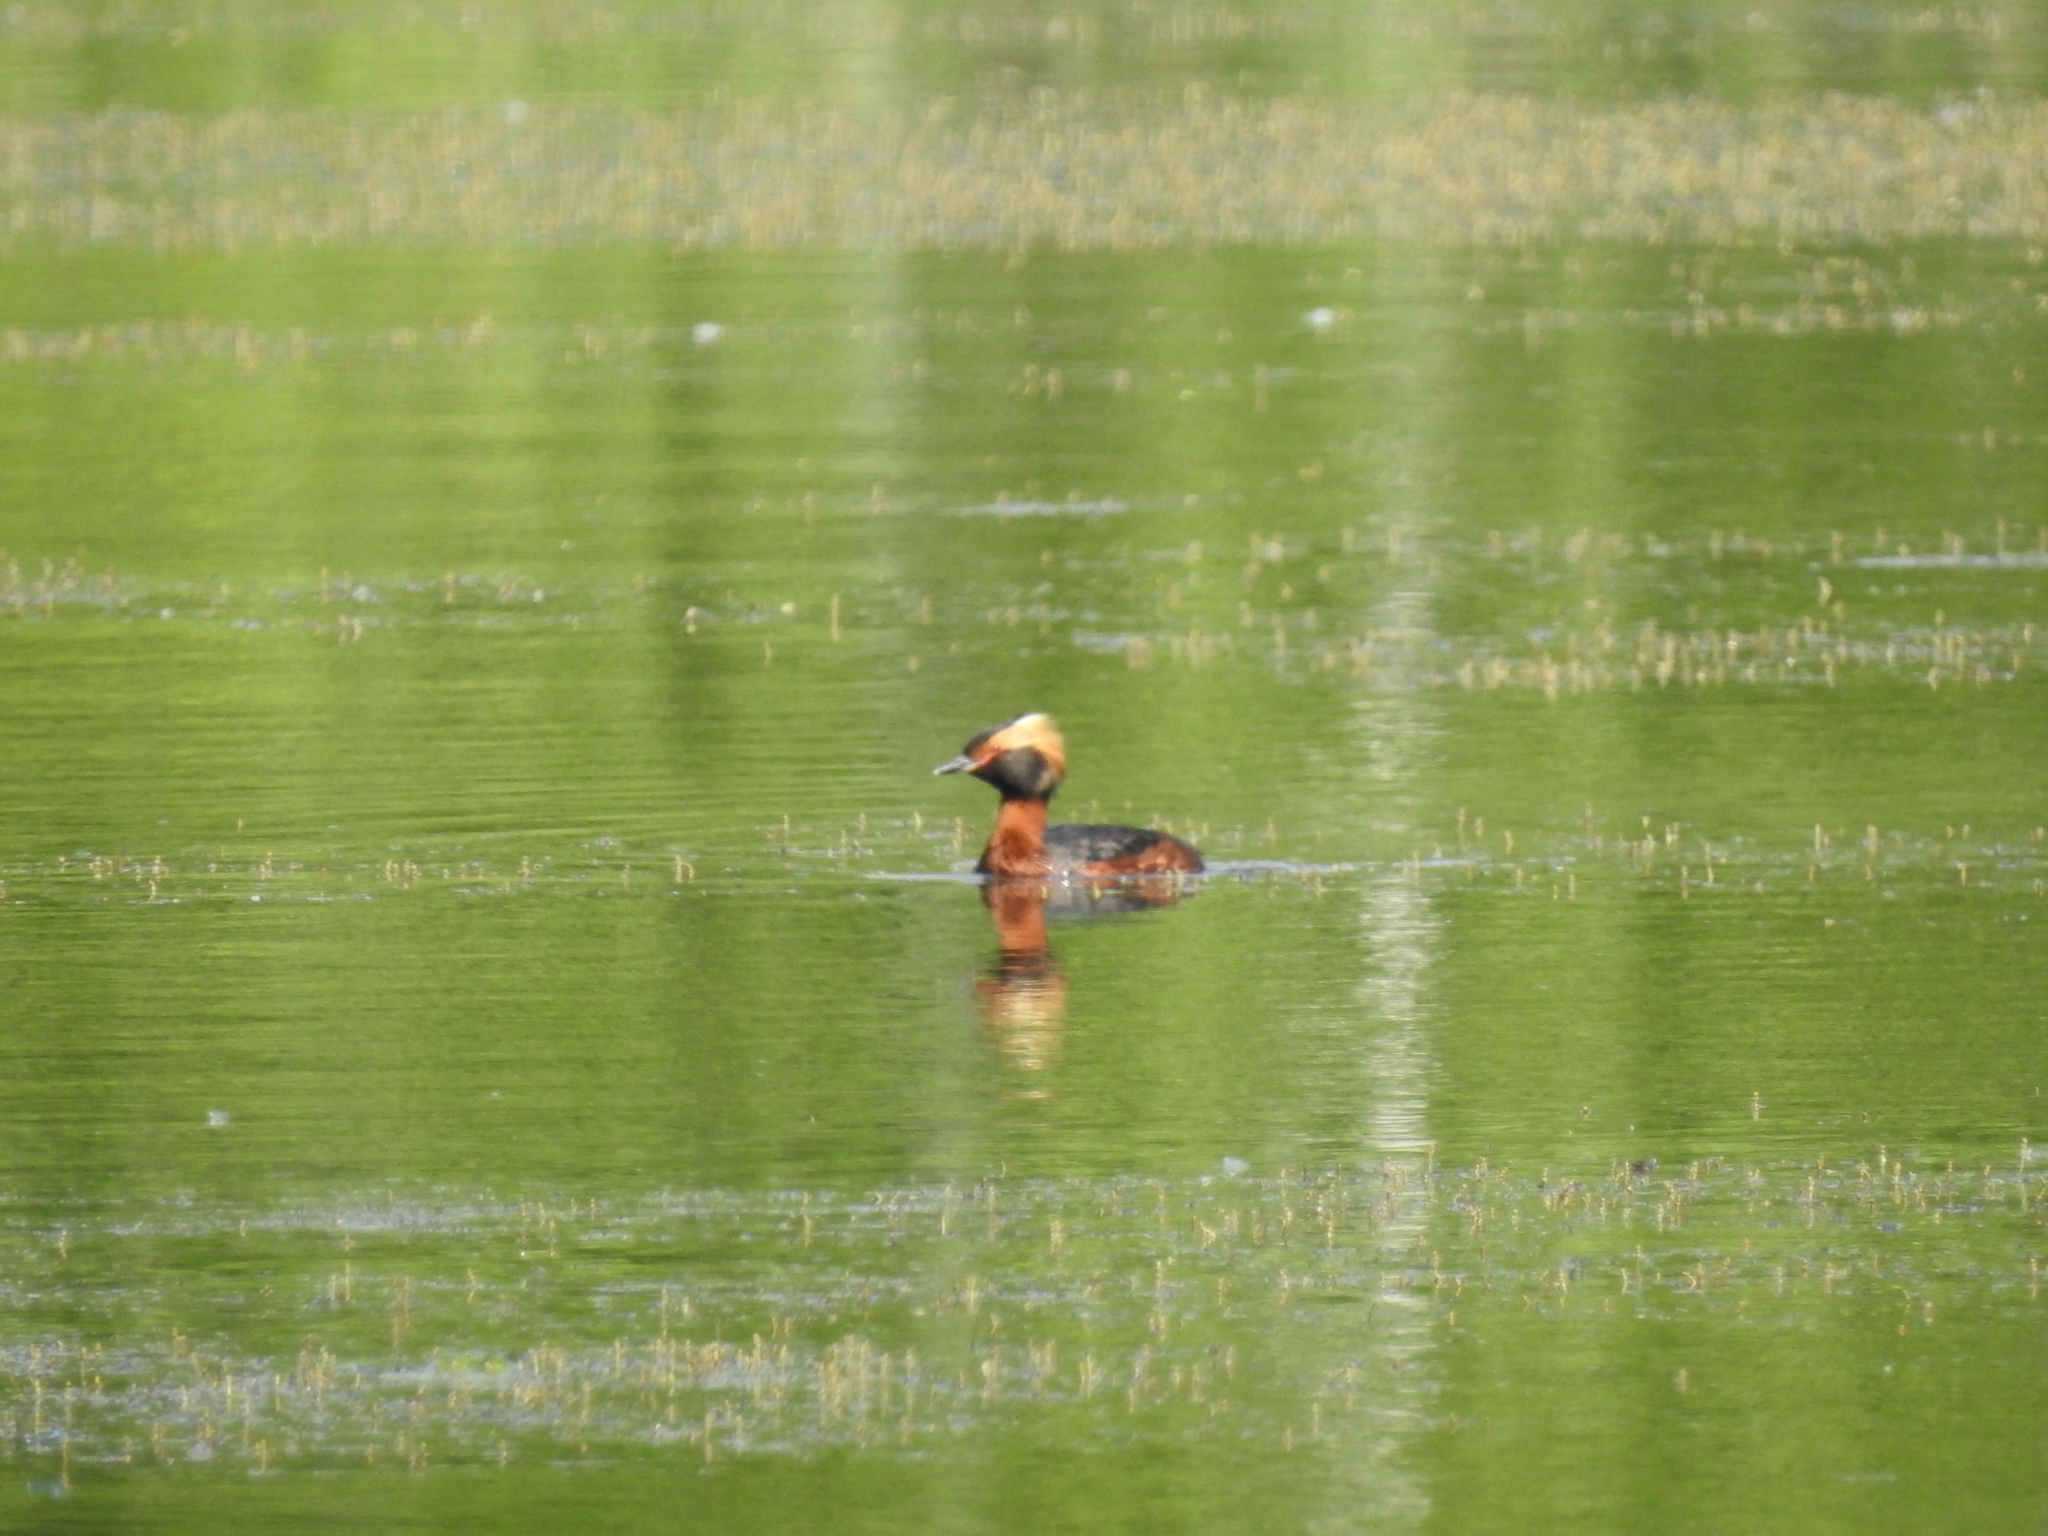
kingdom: Animalia
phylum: Chordata
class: Aves
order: Podicipediformes
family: Podicipedidae
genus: Podiceps
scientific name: Podiceps auritus
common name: Horned grebe
